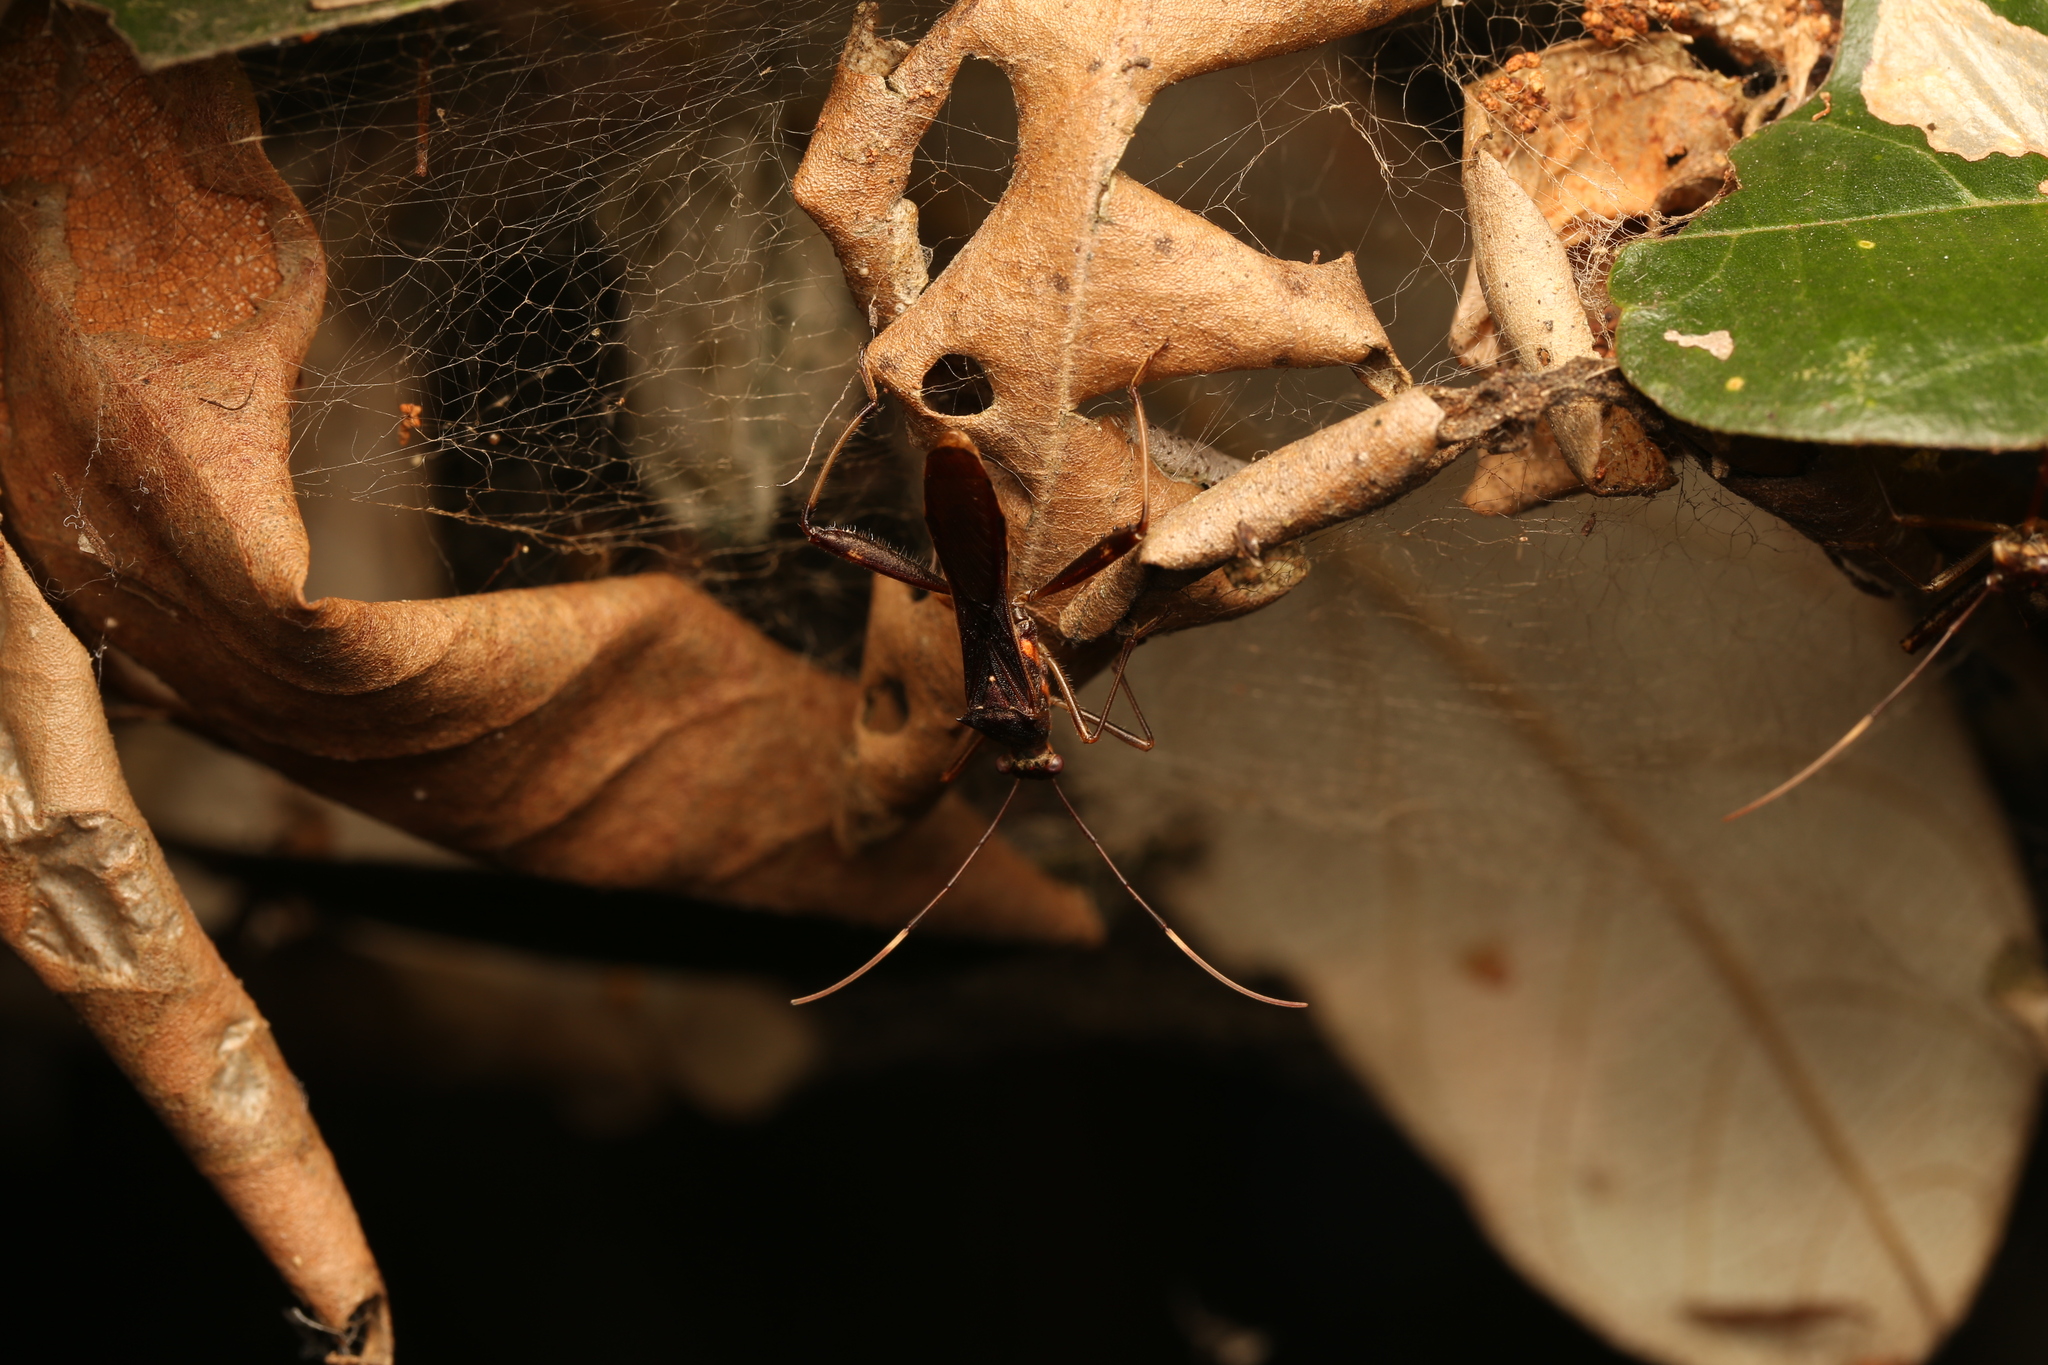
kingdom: Animalia
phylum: Arthropoda
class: Insecta
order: Hemiptera
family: Alydidae
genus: Riptortus
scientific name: Riptortus serripes
